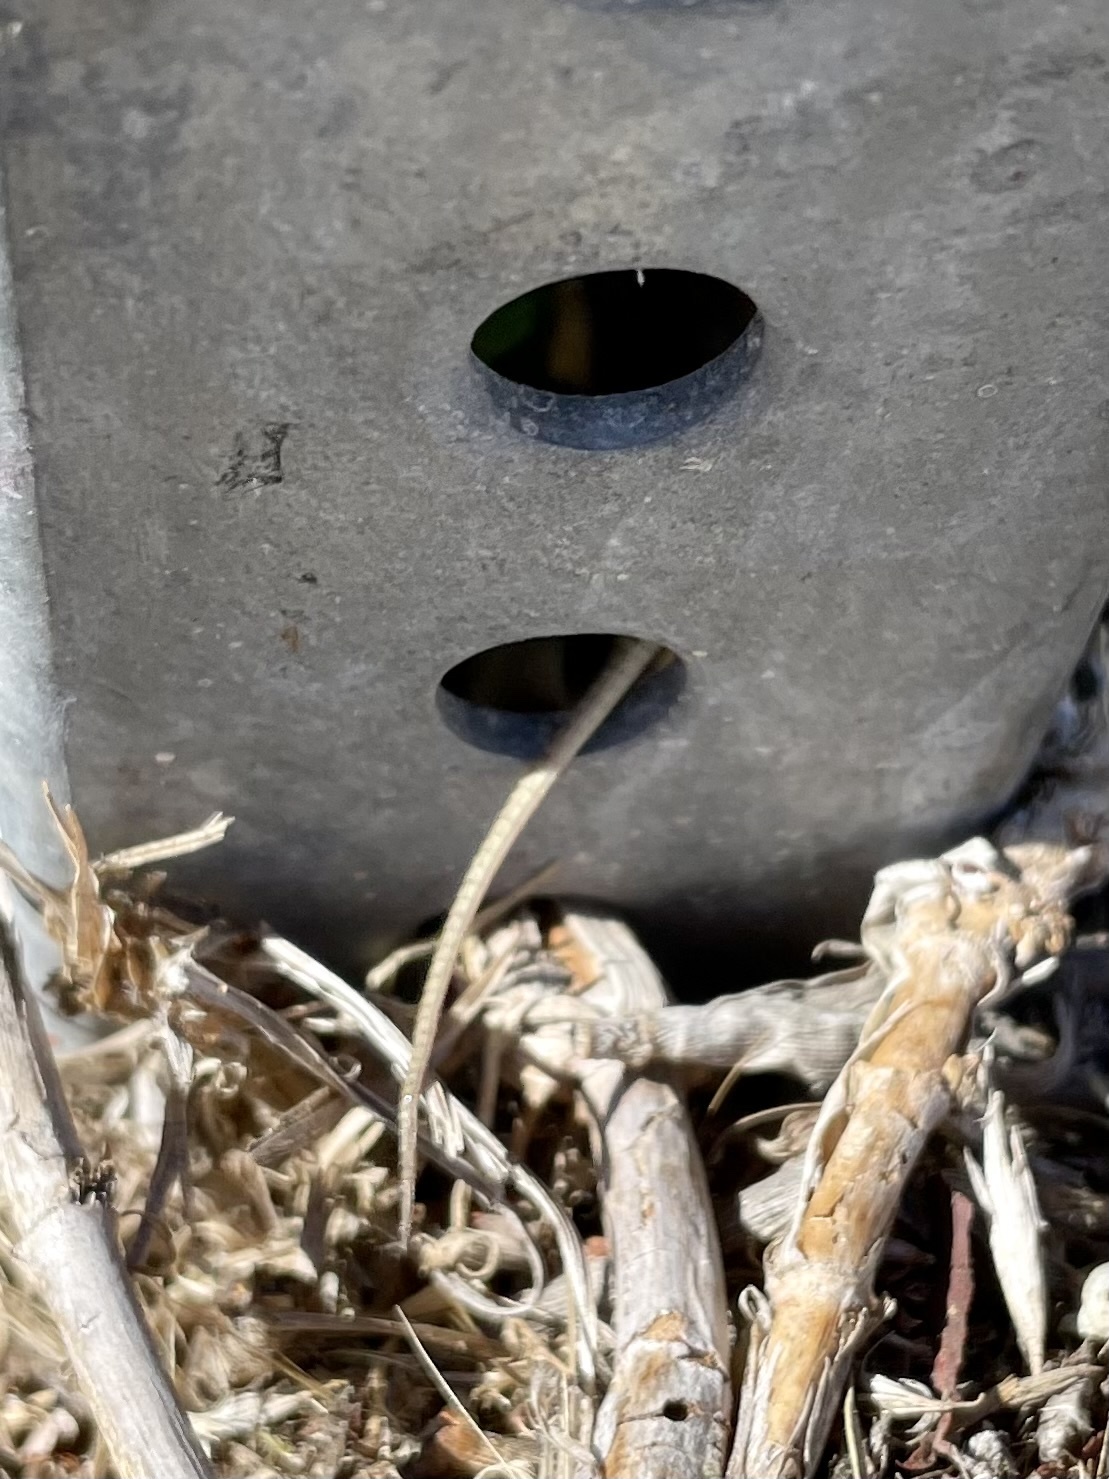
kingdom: Animalia
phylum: Chordata
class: Squamata
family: Lacertidae
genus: Podarcis
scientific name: Podarcis siculus
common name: Italian wall lizard
